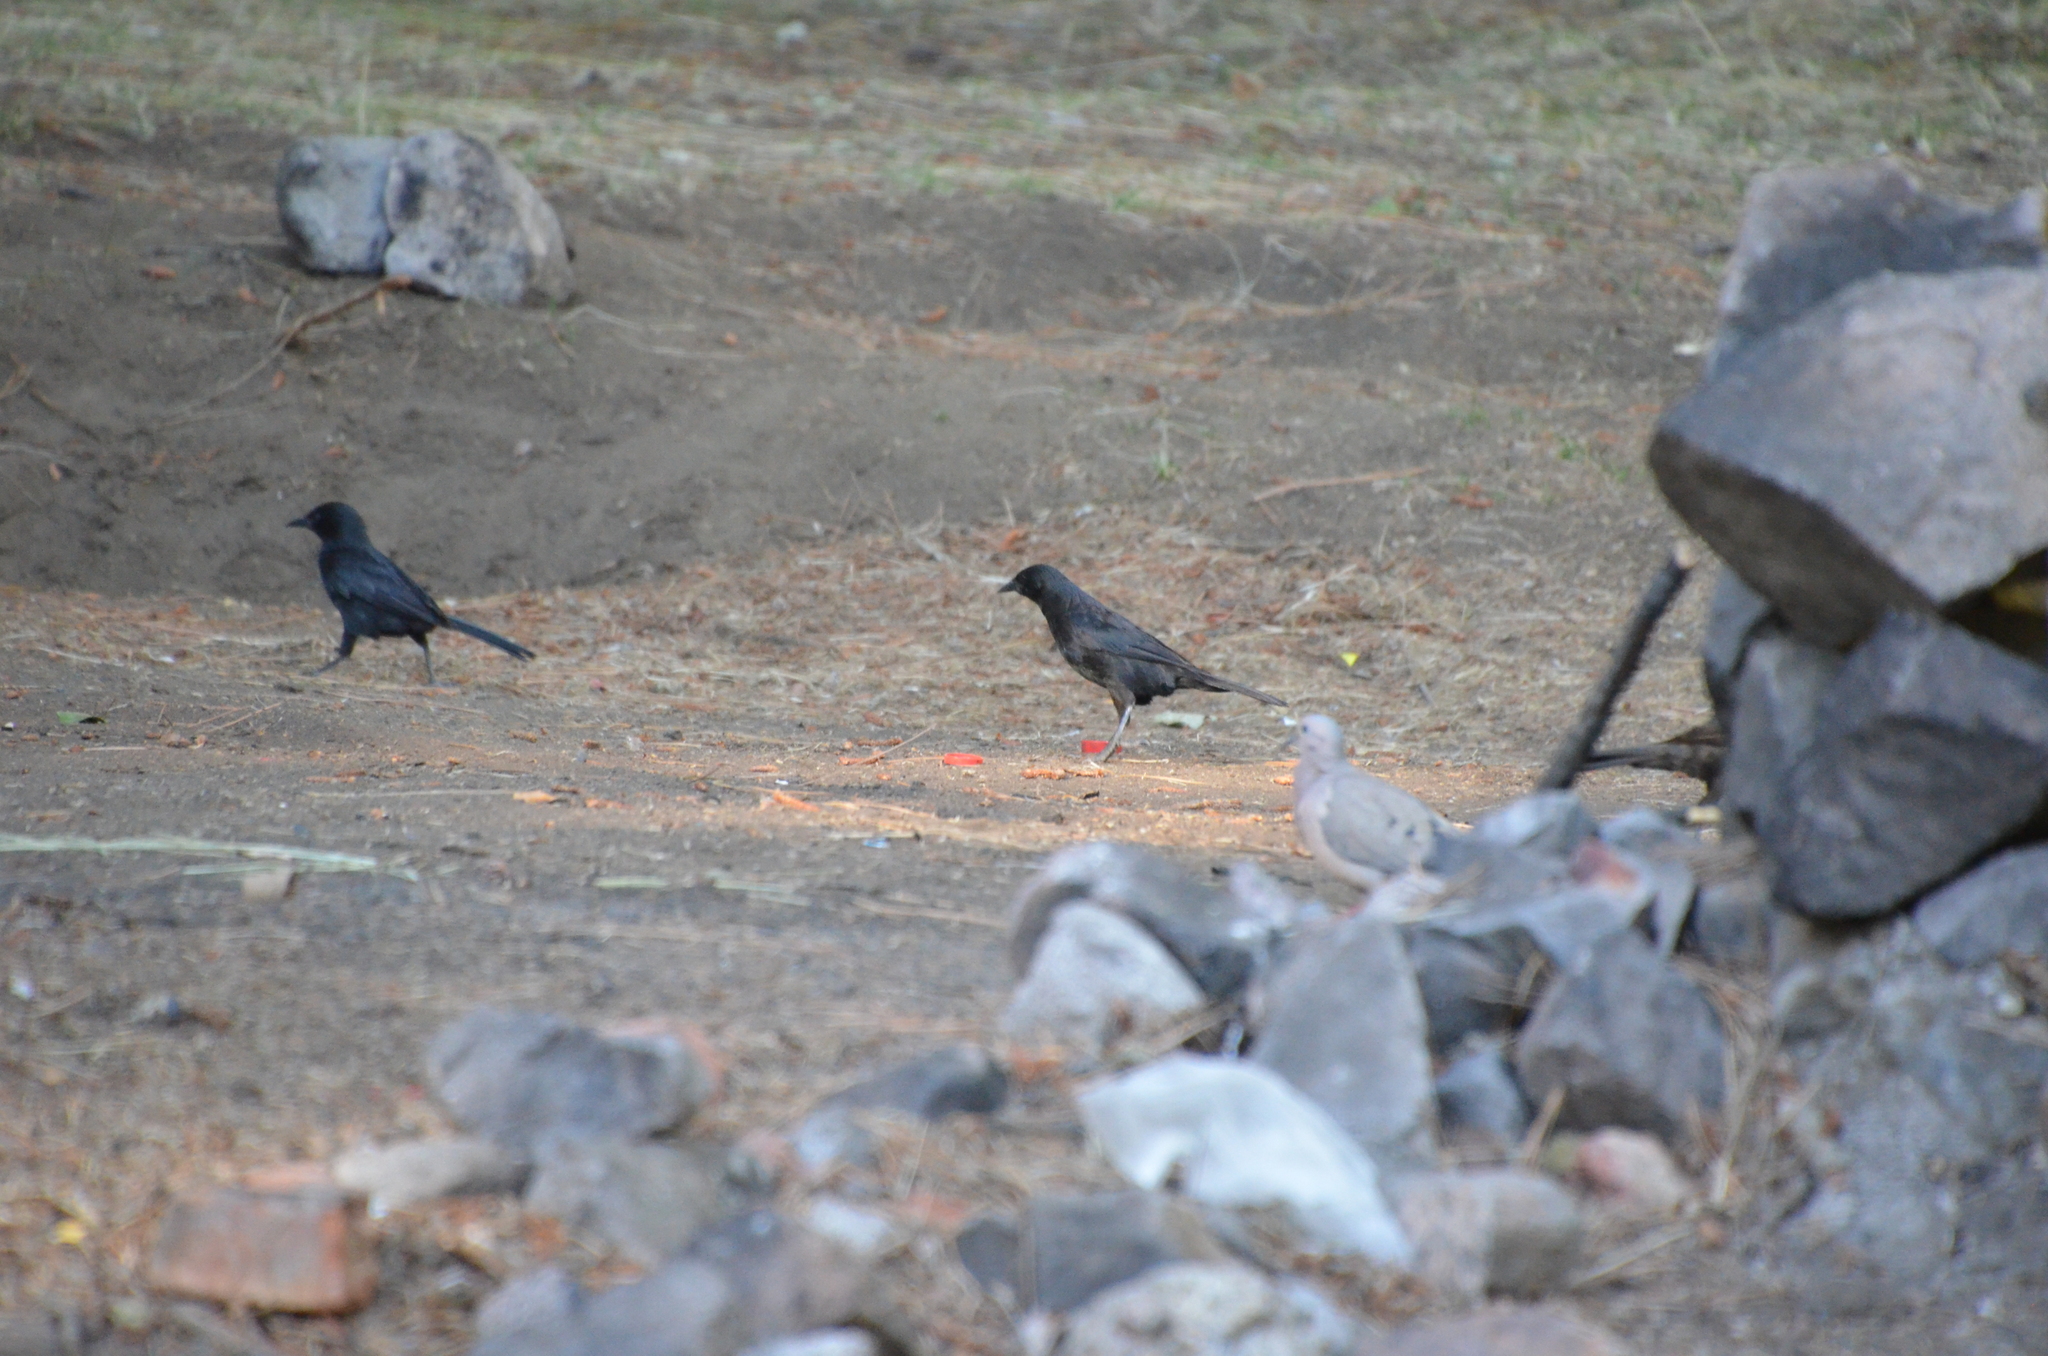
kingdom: Animalia
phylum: Chordata
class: Aves
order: Passeriformes
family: Icteridae
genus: Curaeus
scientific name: Curaeus curaeus
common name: Austral blackbird
